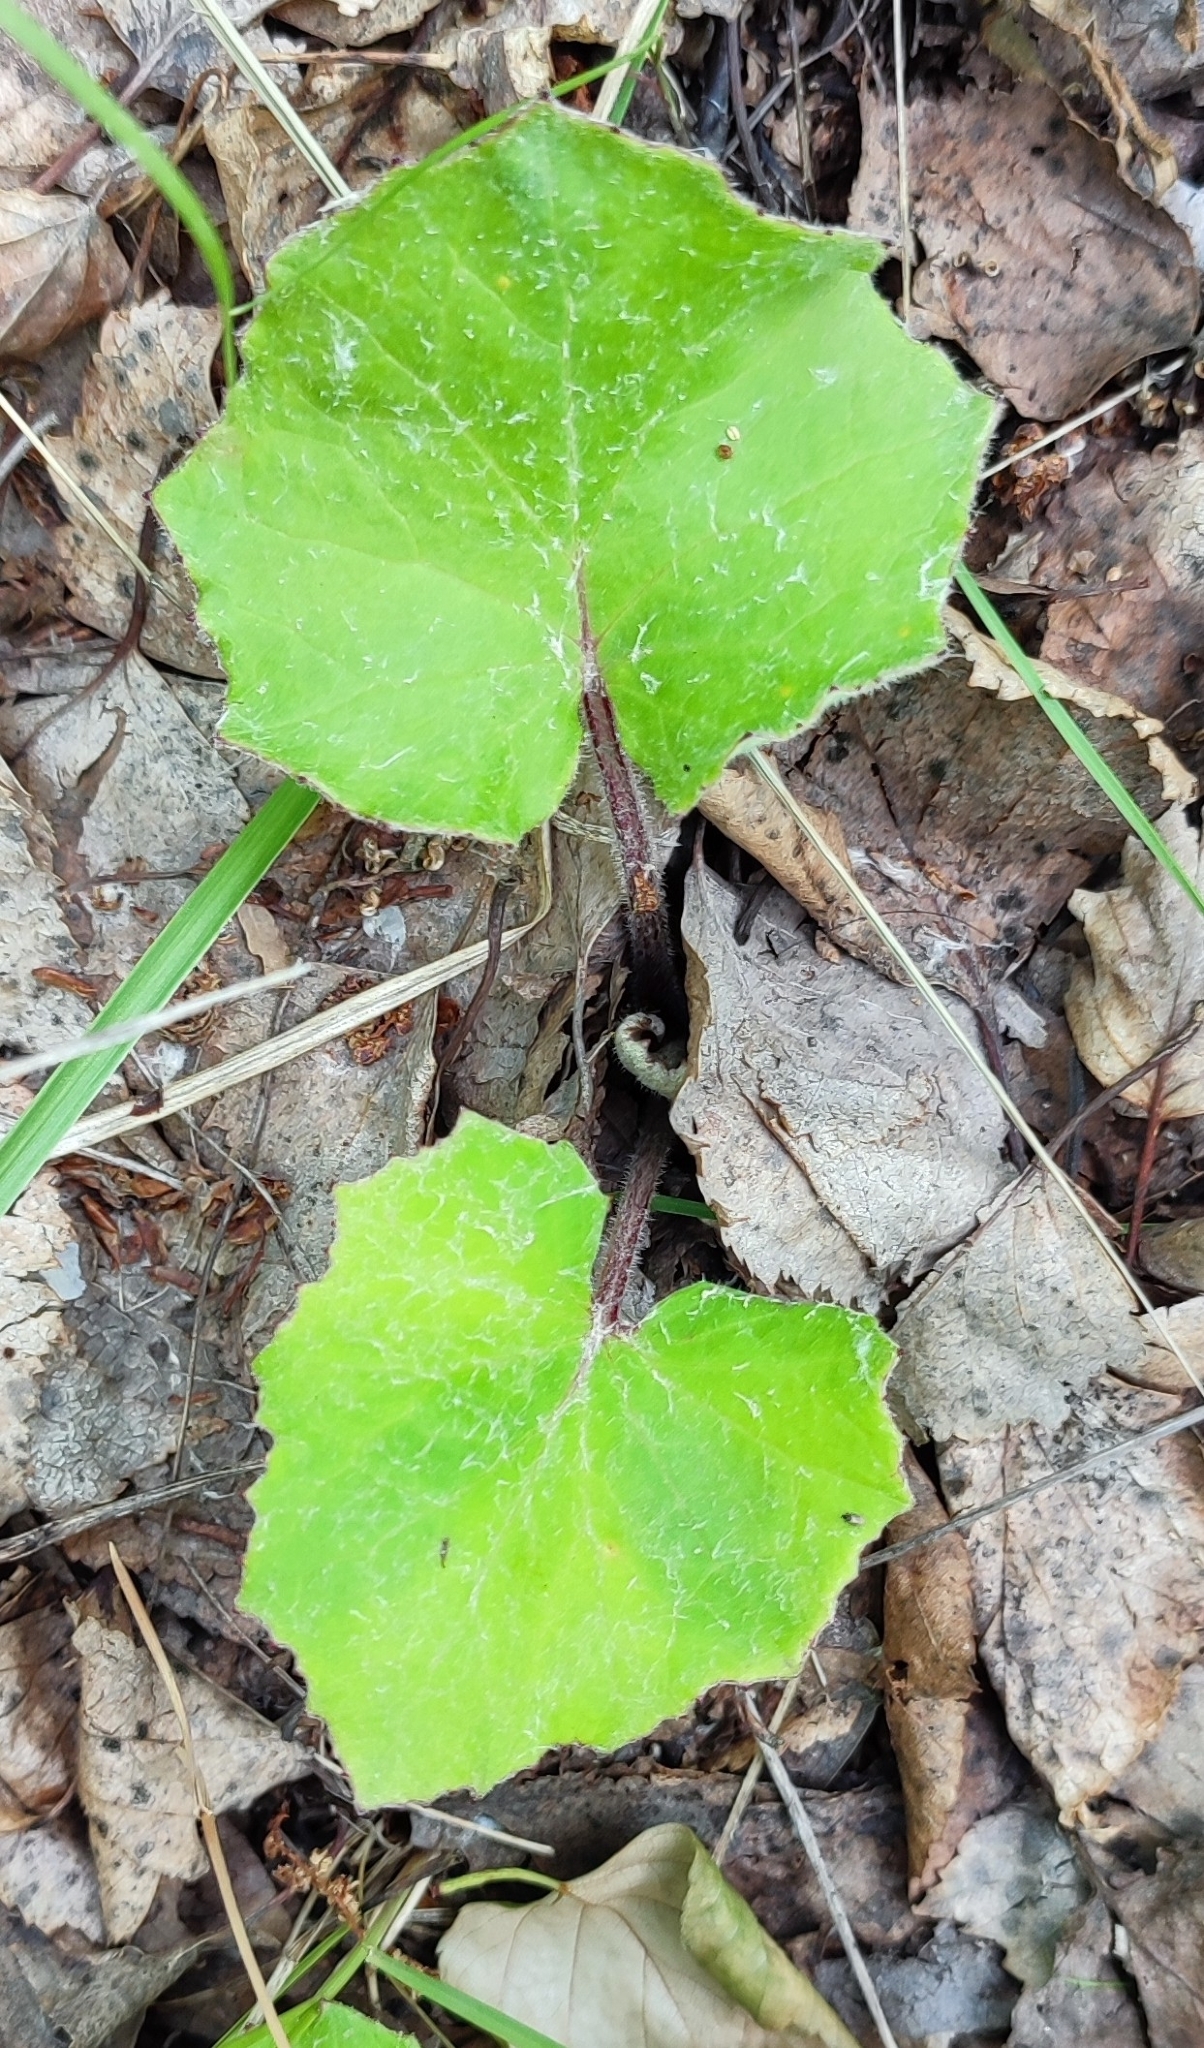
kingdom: Plantae
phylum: Tracheophyta
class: Magnoliopsida
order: Asterales
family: Asteraceae
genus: Tussilago
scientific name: Tussilago farfara
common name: Coltsfoot
